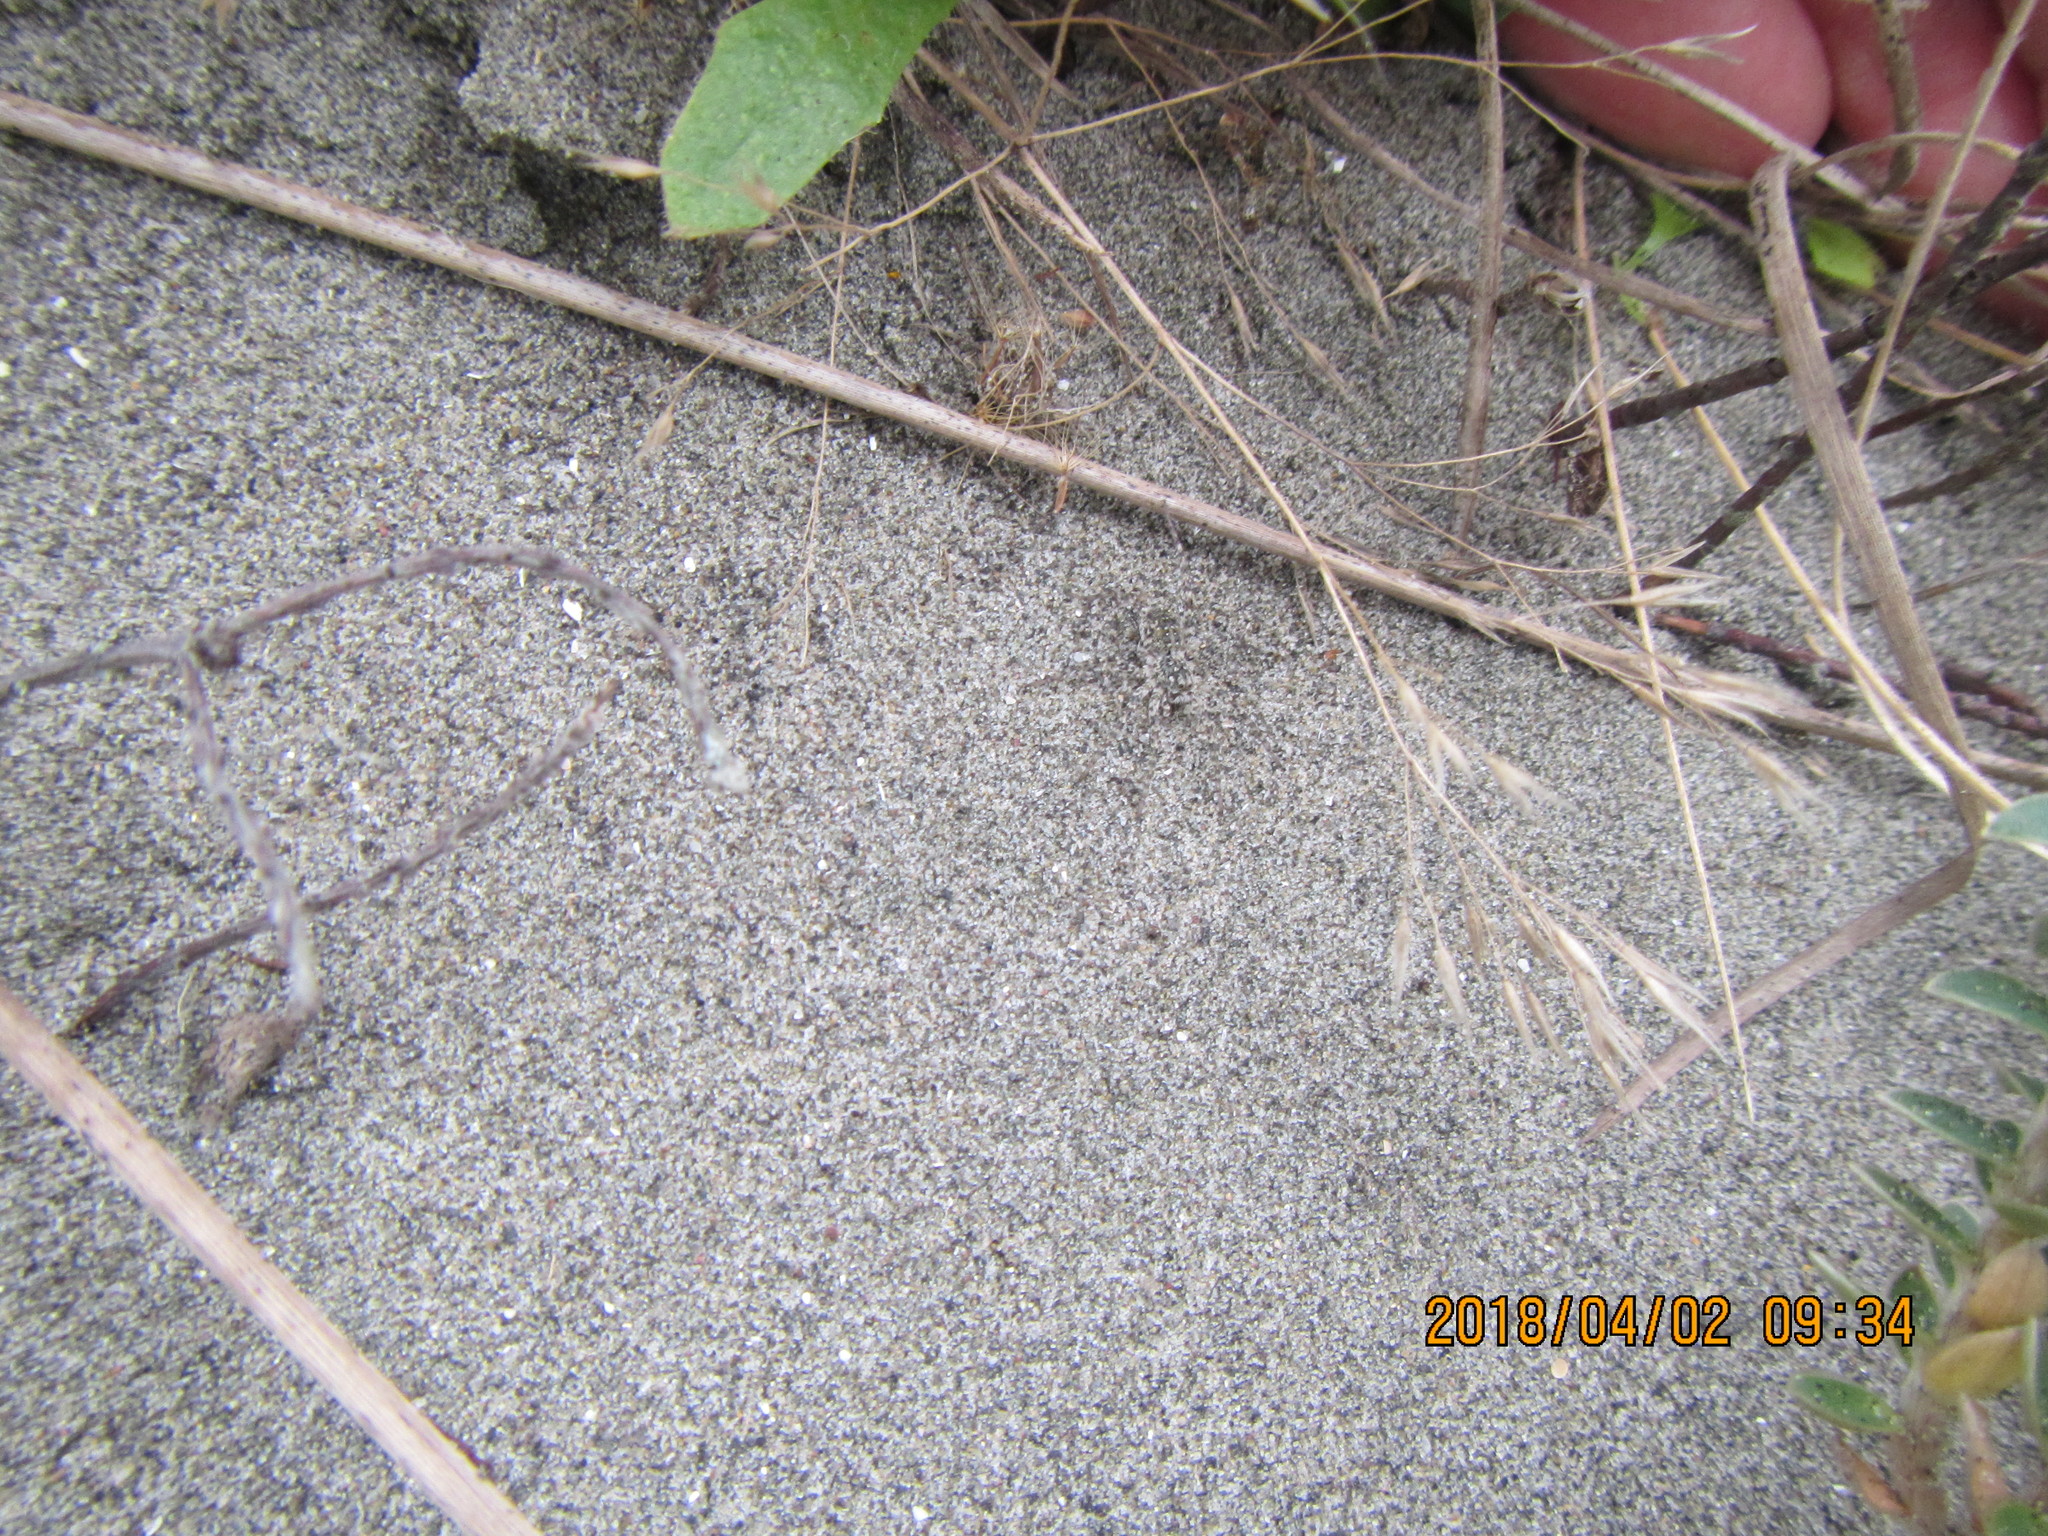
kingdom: Animalia
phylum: Arthropoda
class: Arachnida
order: Araneae
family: Lycosidae
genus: Anoteropsis
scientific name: Anoteropsis litoralis
